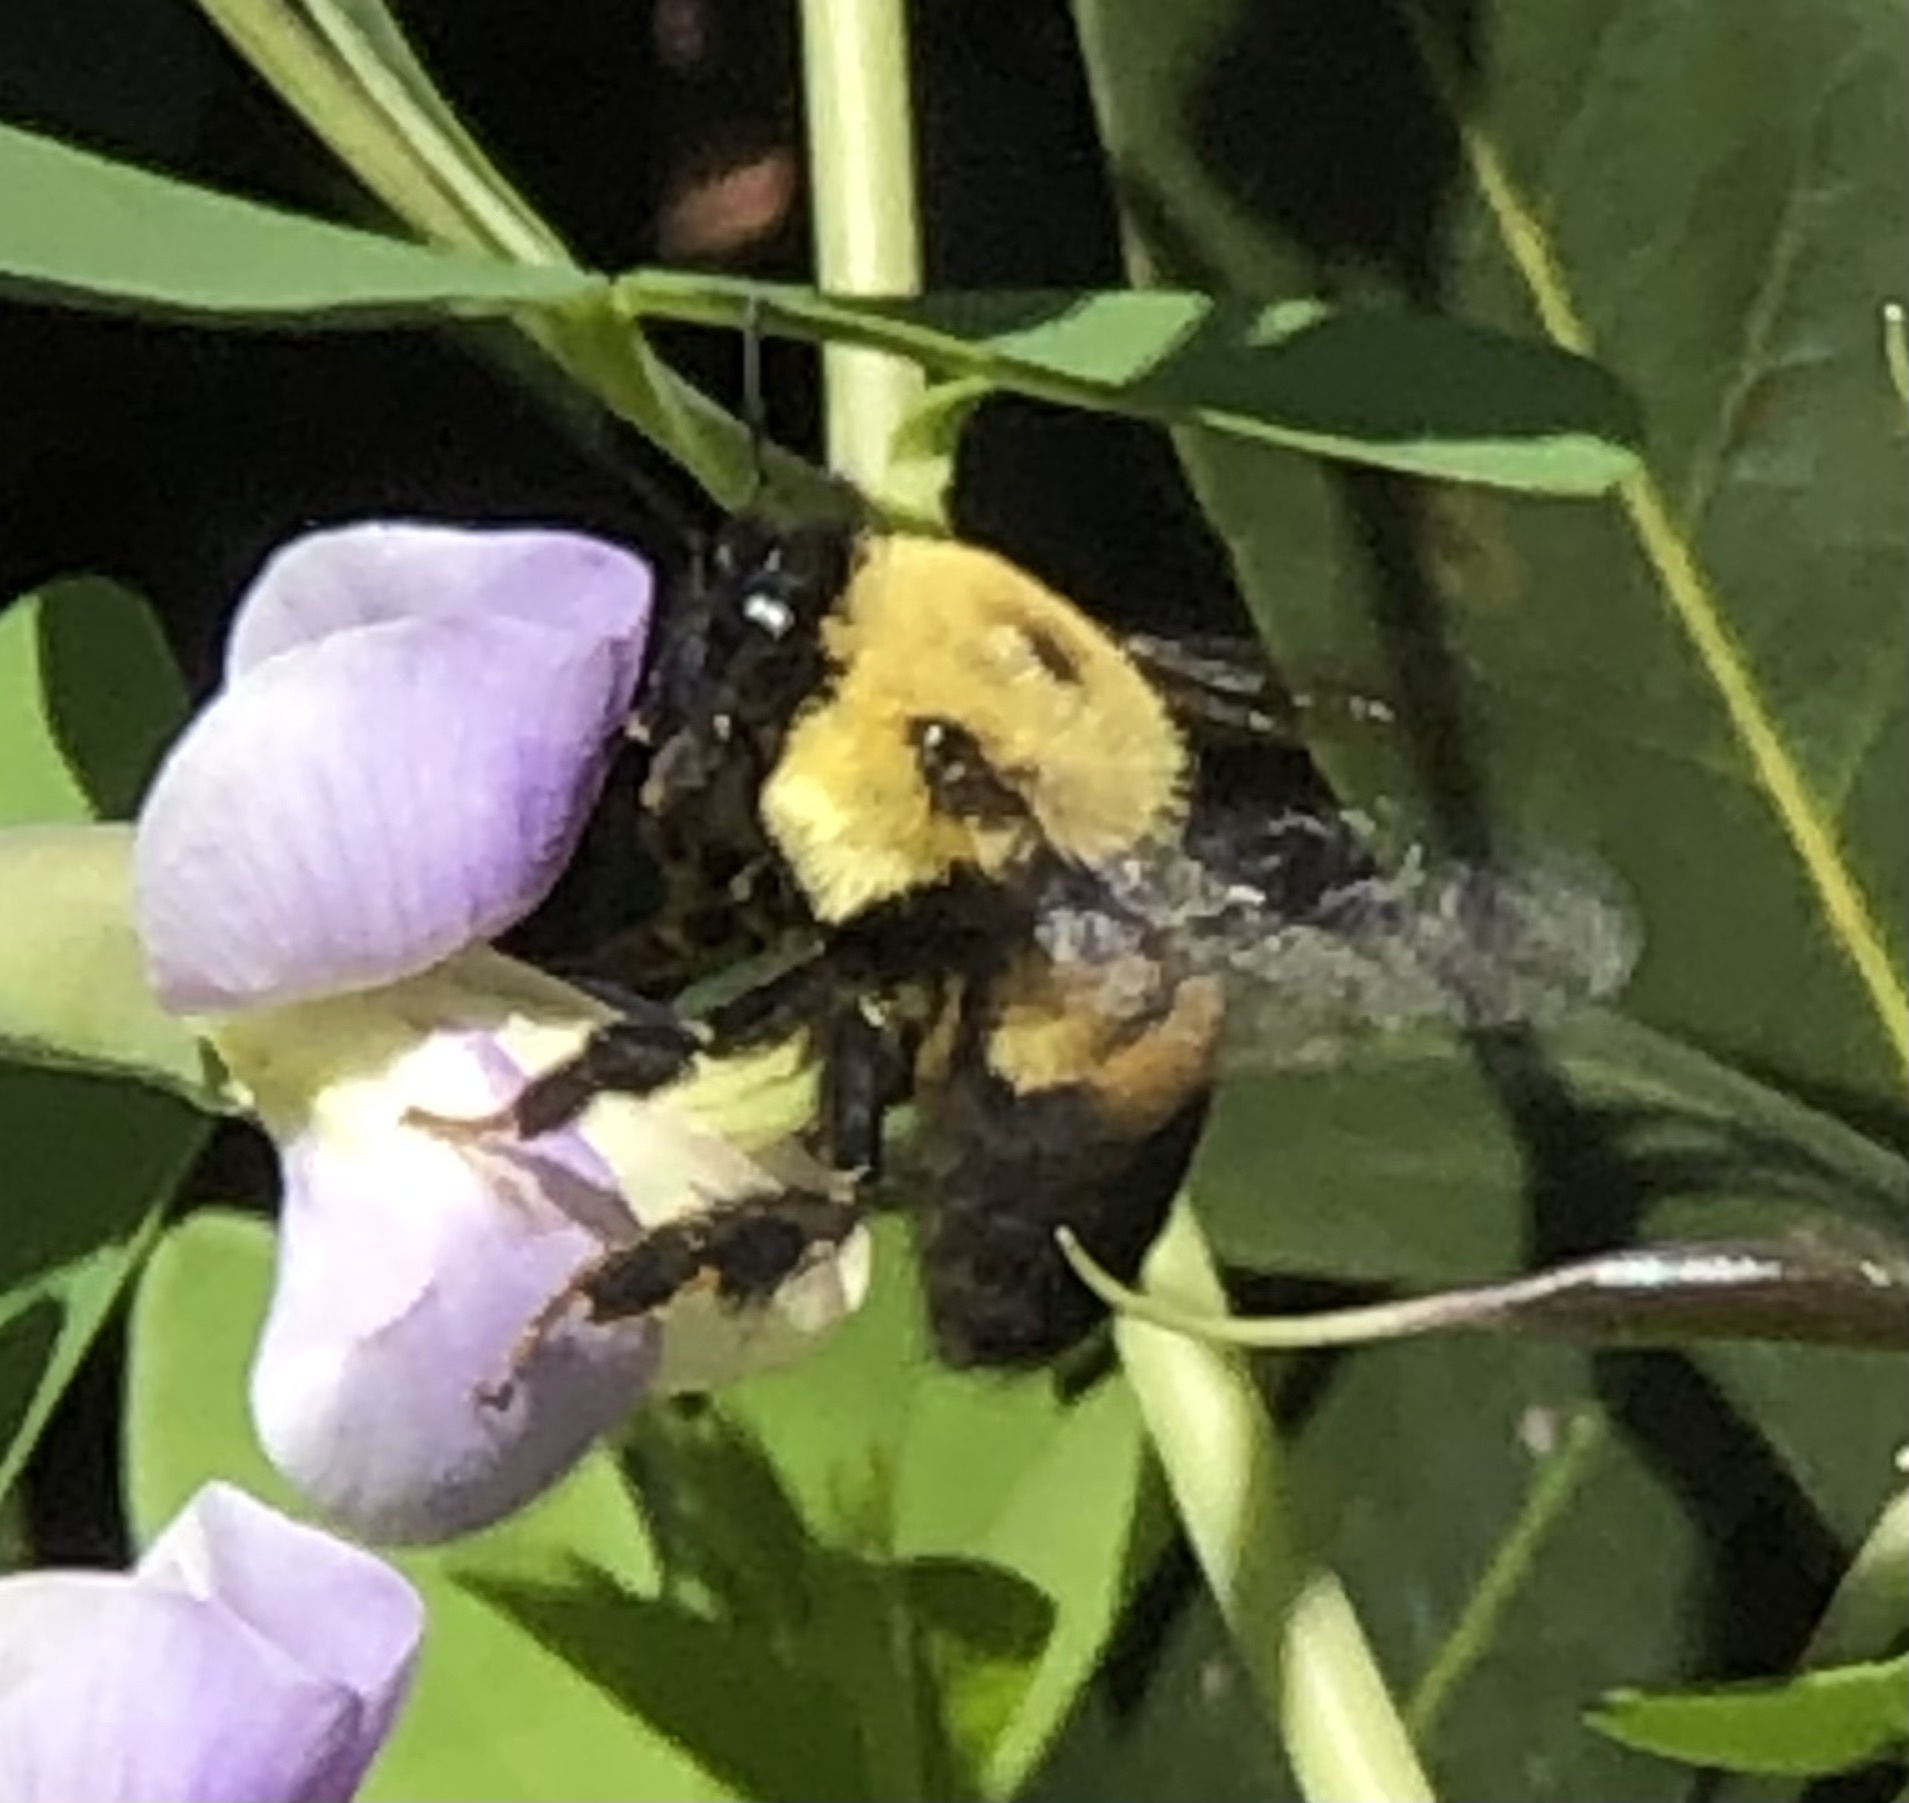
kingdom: Animalia
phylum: Arthropoda
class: Insecta
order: Hymenoptera
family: Apidae
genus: Bombus
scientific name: Bombus griseocollis
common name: Brown-belted bumble bee
